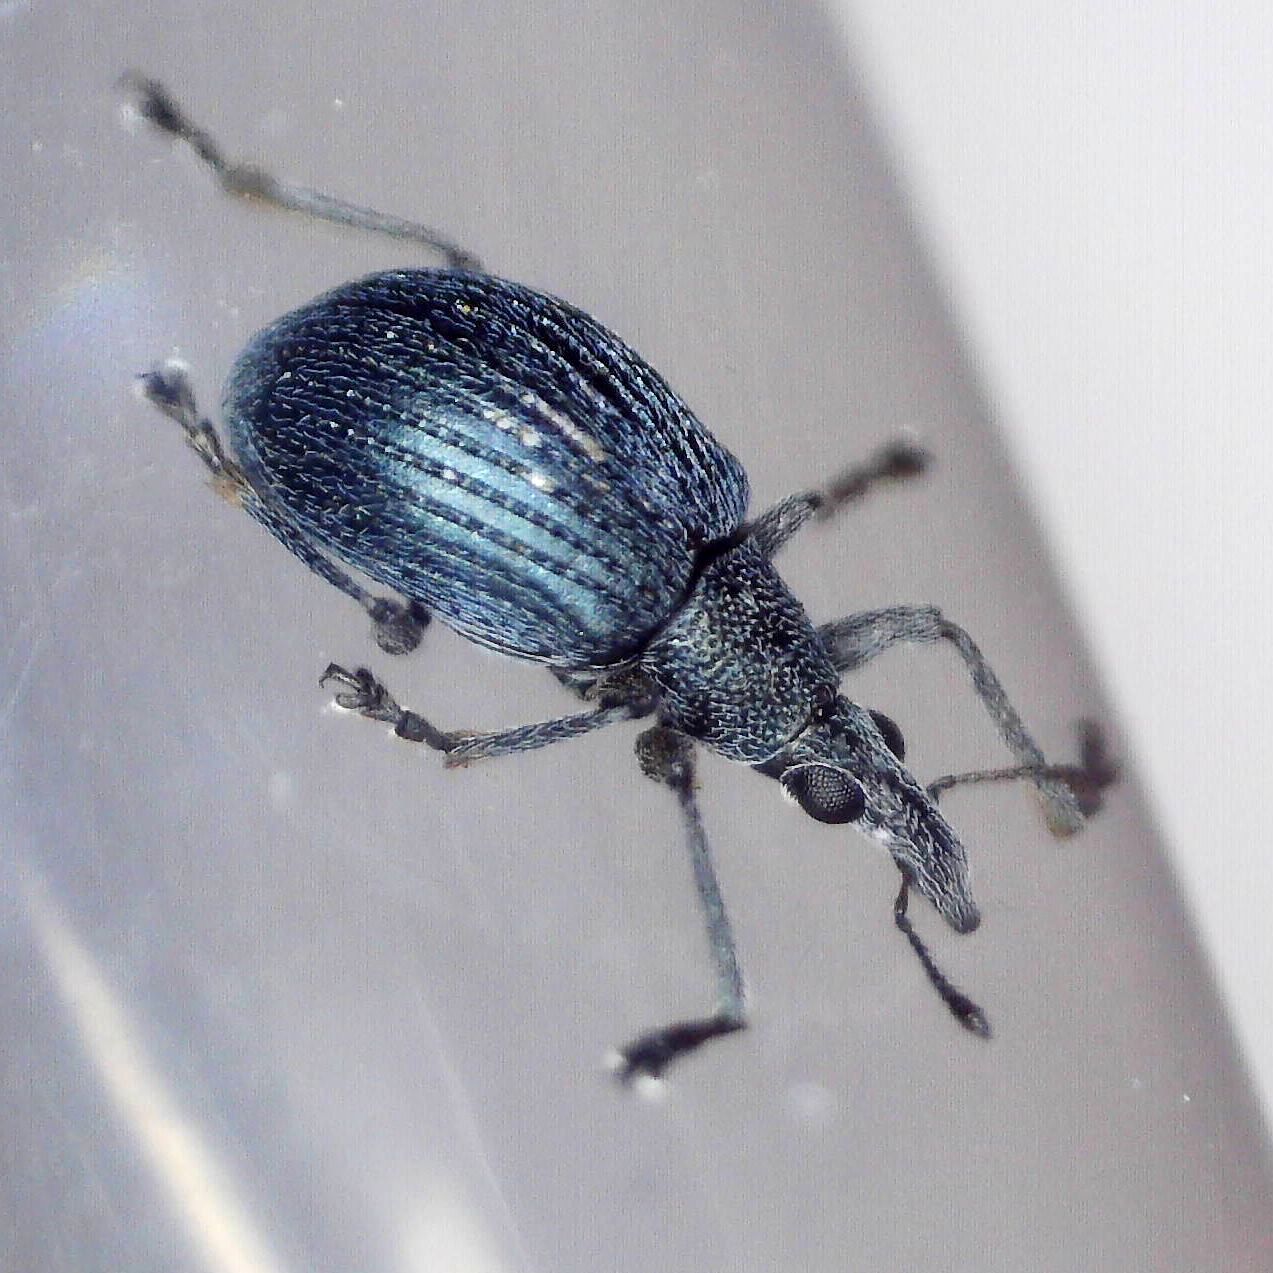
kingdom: Animalia
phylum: Arthropoda
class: Insecta
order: Coleoptera
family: Apionidae
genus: Oxystoma
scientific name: Oxystoma pomonae
